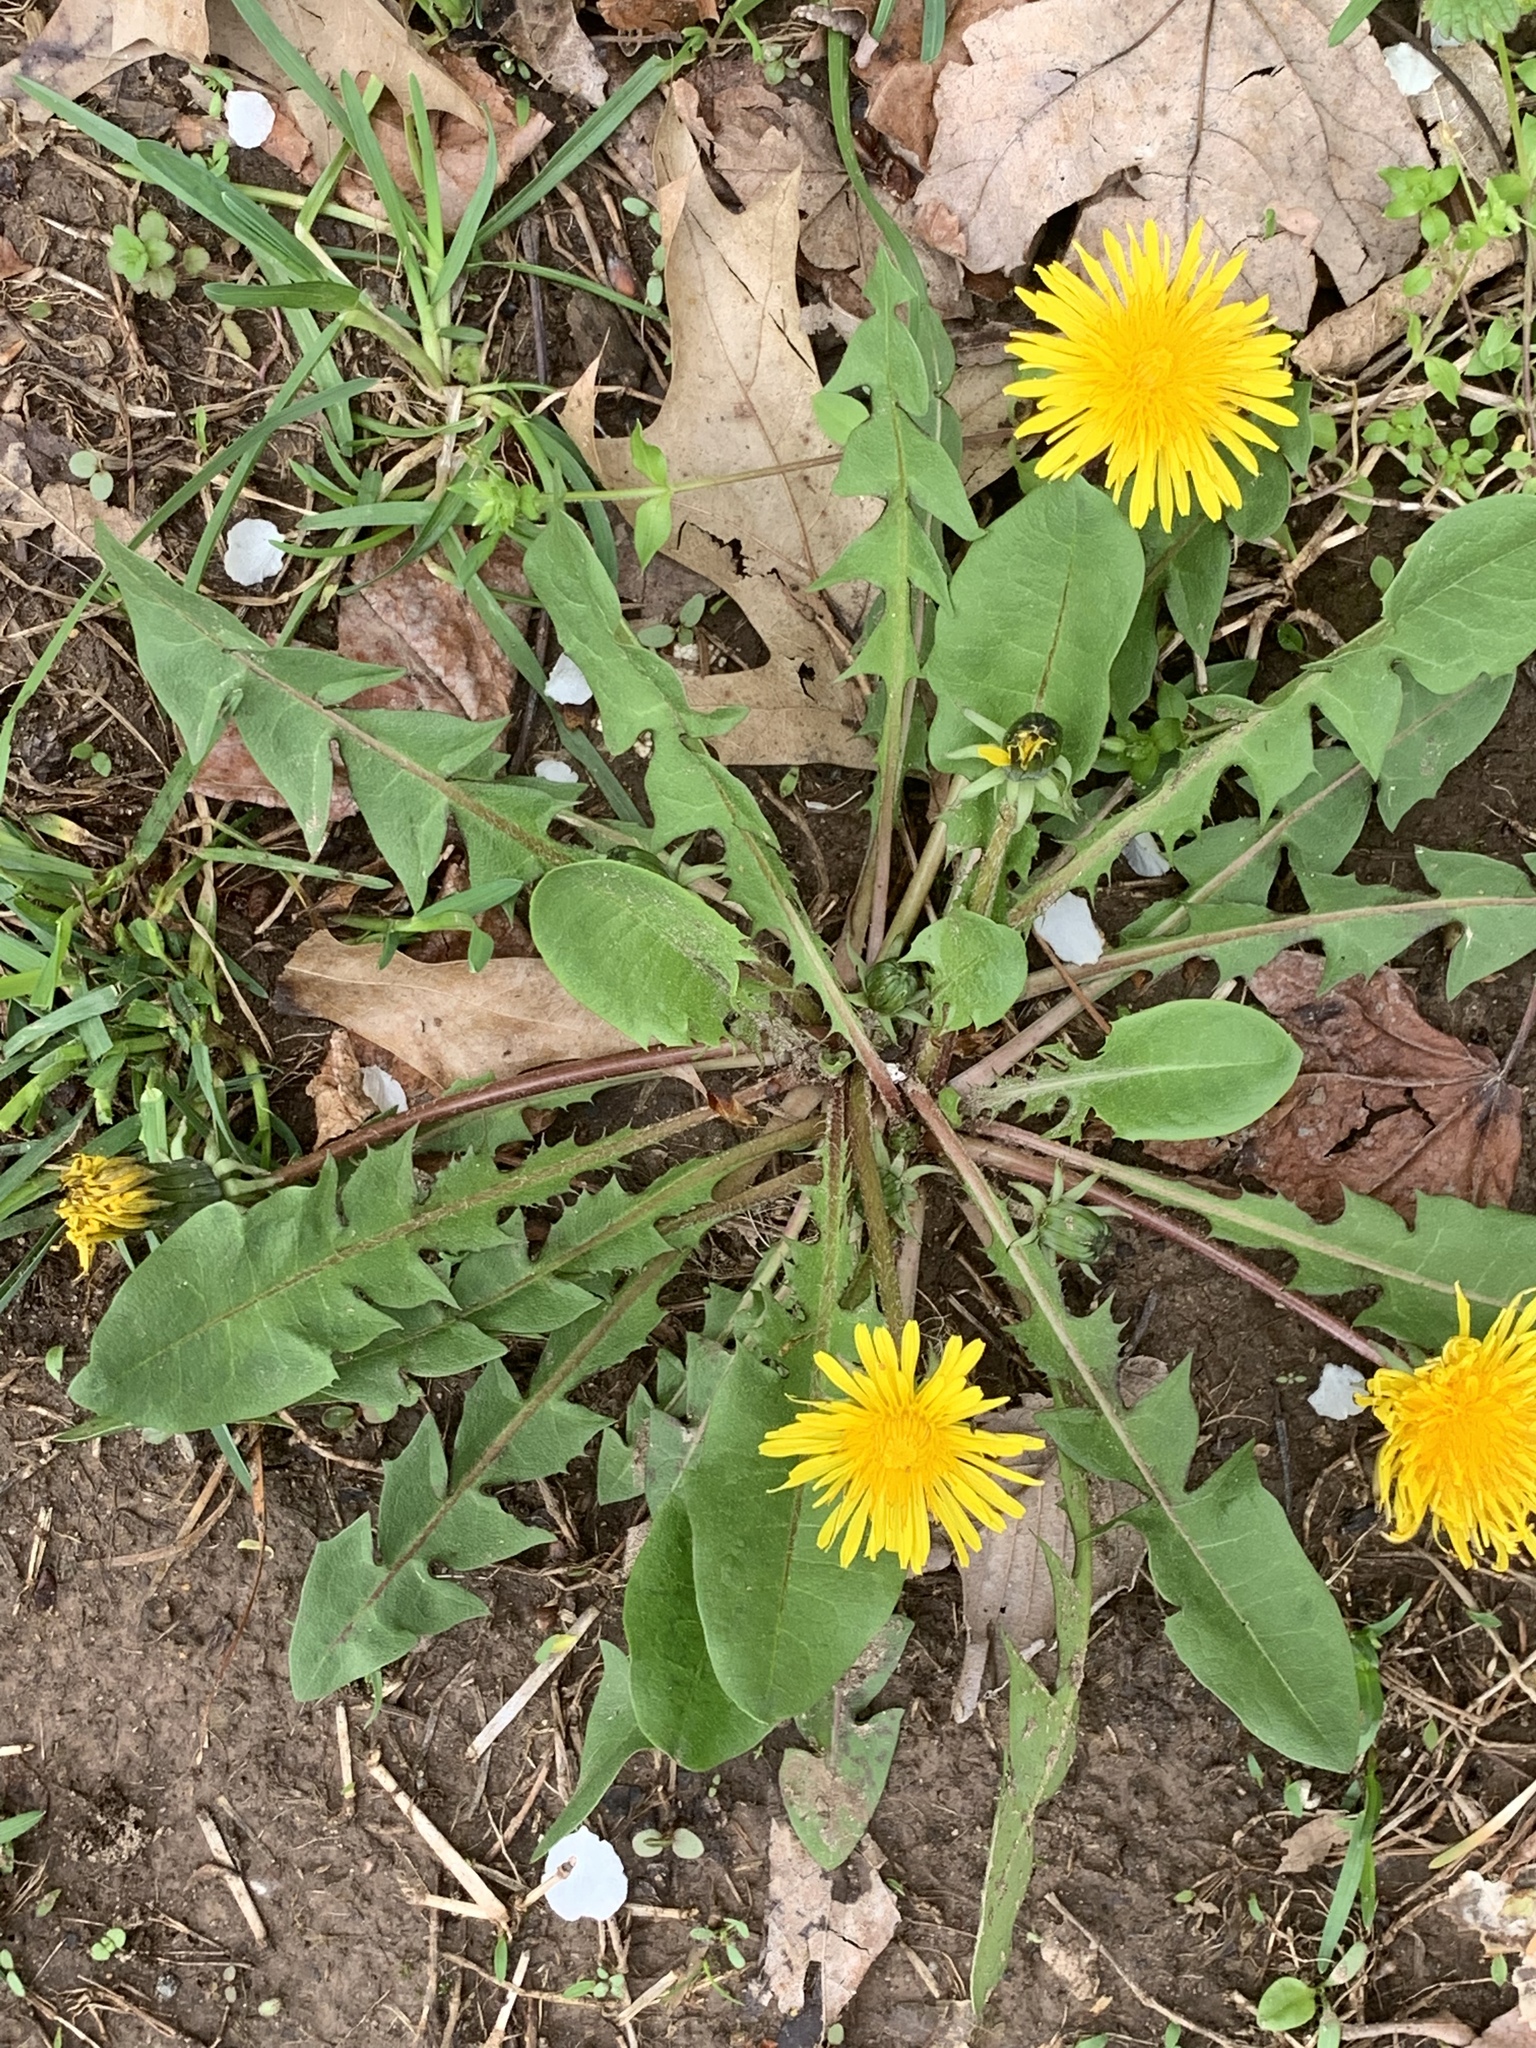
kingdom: Plantae
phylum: Tracheophyta
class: Magnoliopsida
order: Asterales
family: Asteraceae
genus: Taraxacum
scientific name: Taraxacum officinale
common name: Common dandelion
